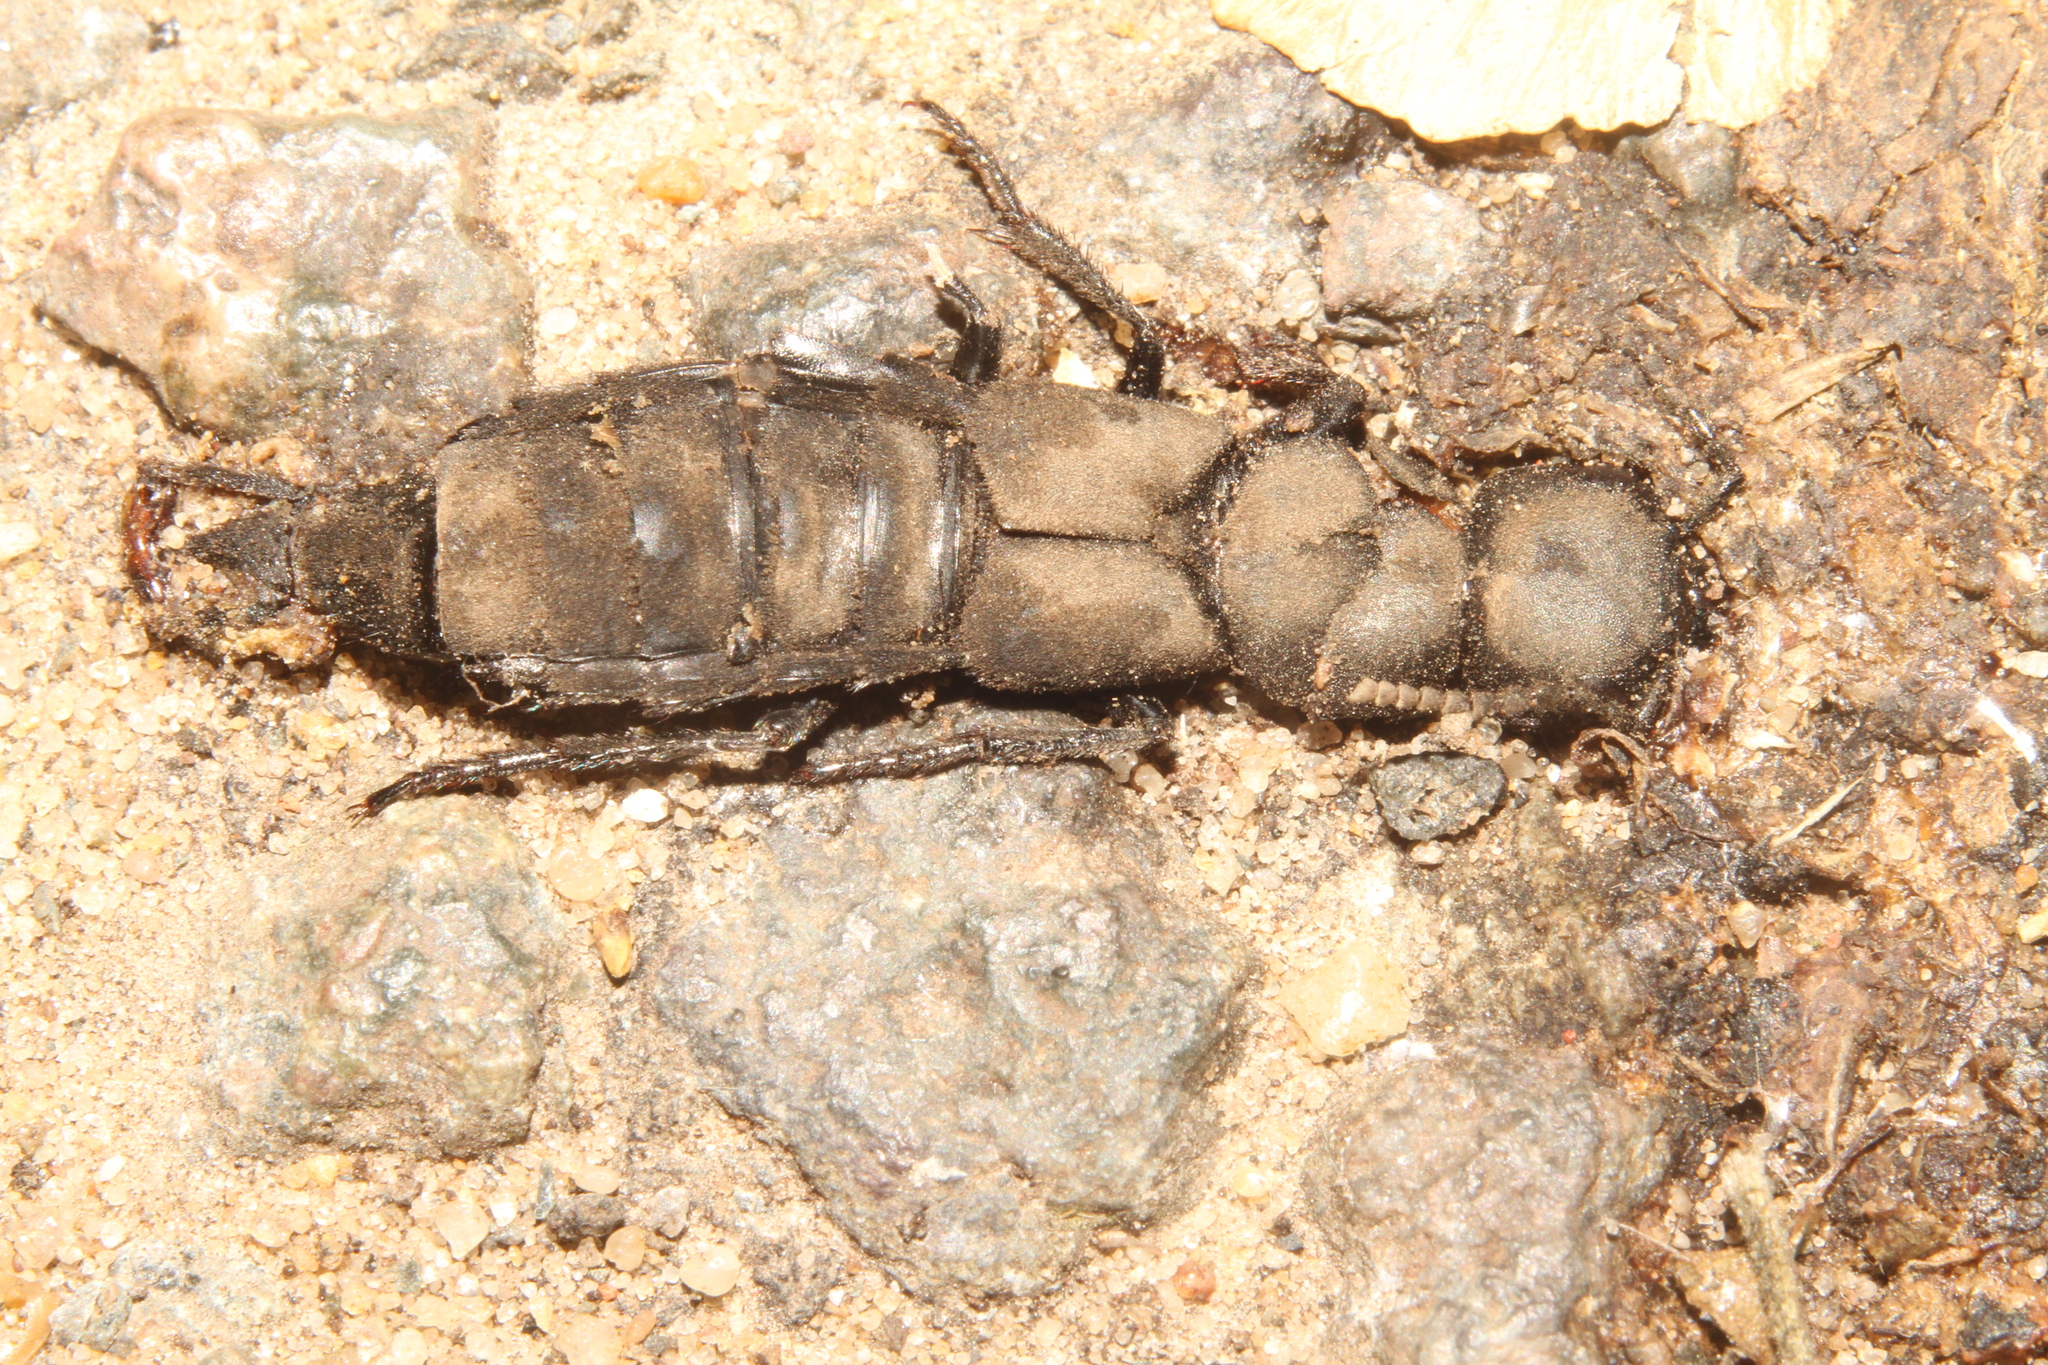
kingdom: Animalia
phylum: Arthropoda
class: Insecta
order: Coleoptera
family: Staphylinidae
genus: Ocypus
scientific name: Ocypus olens
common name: Devil's coach-horse
